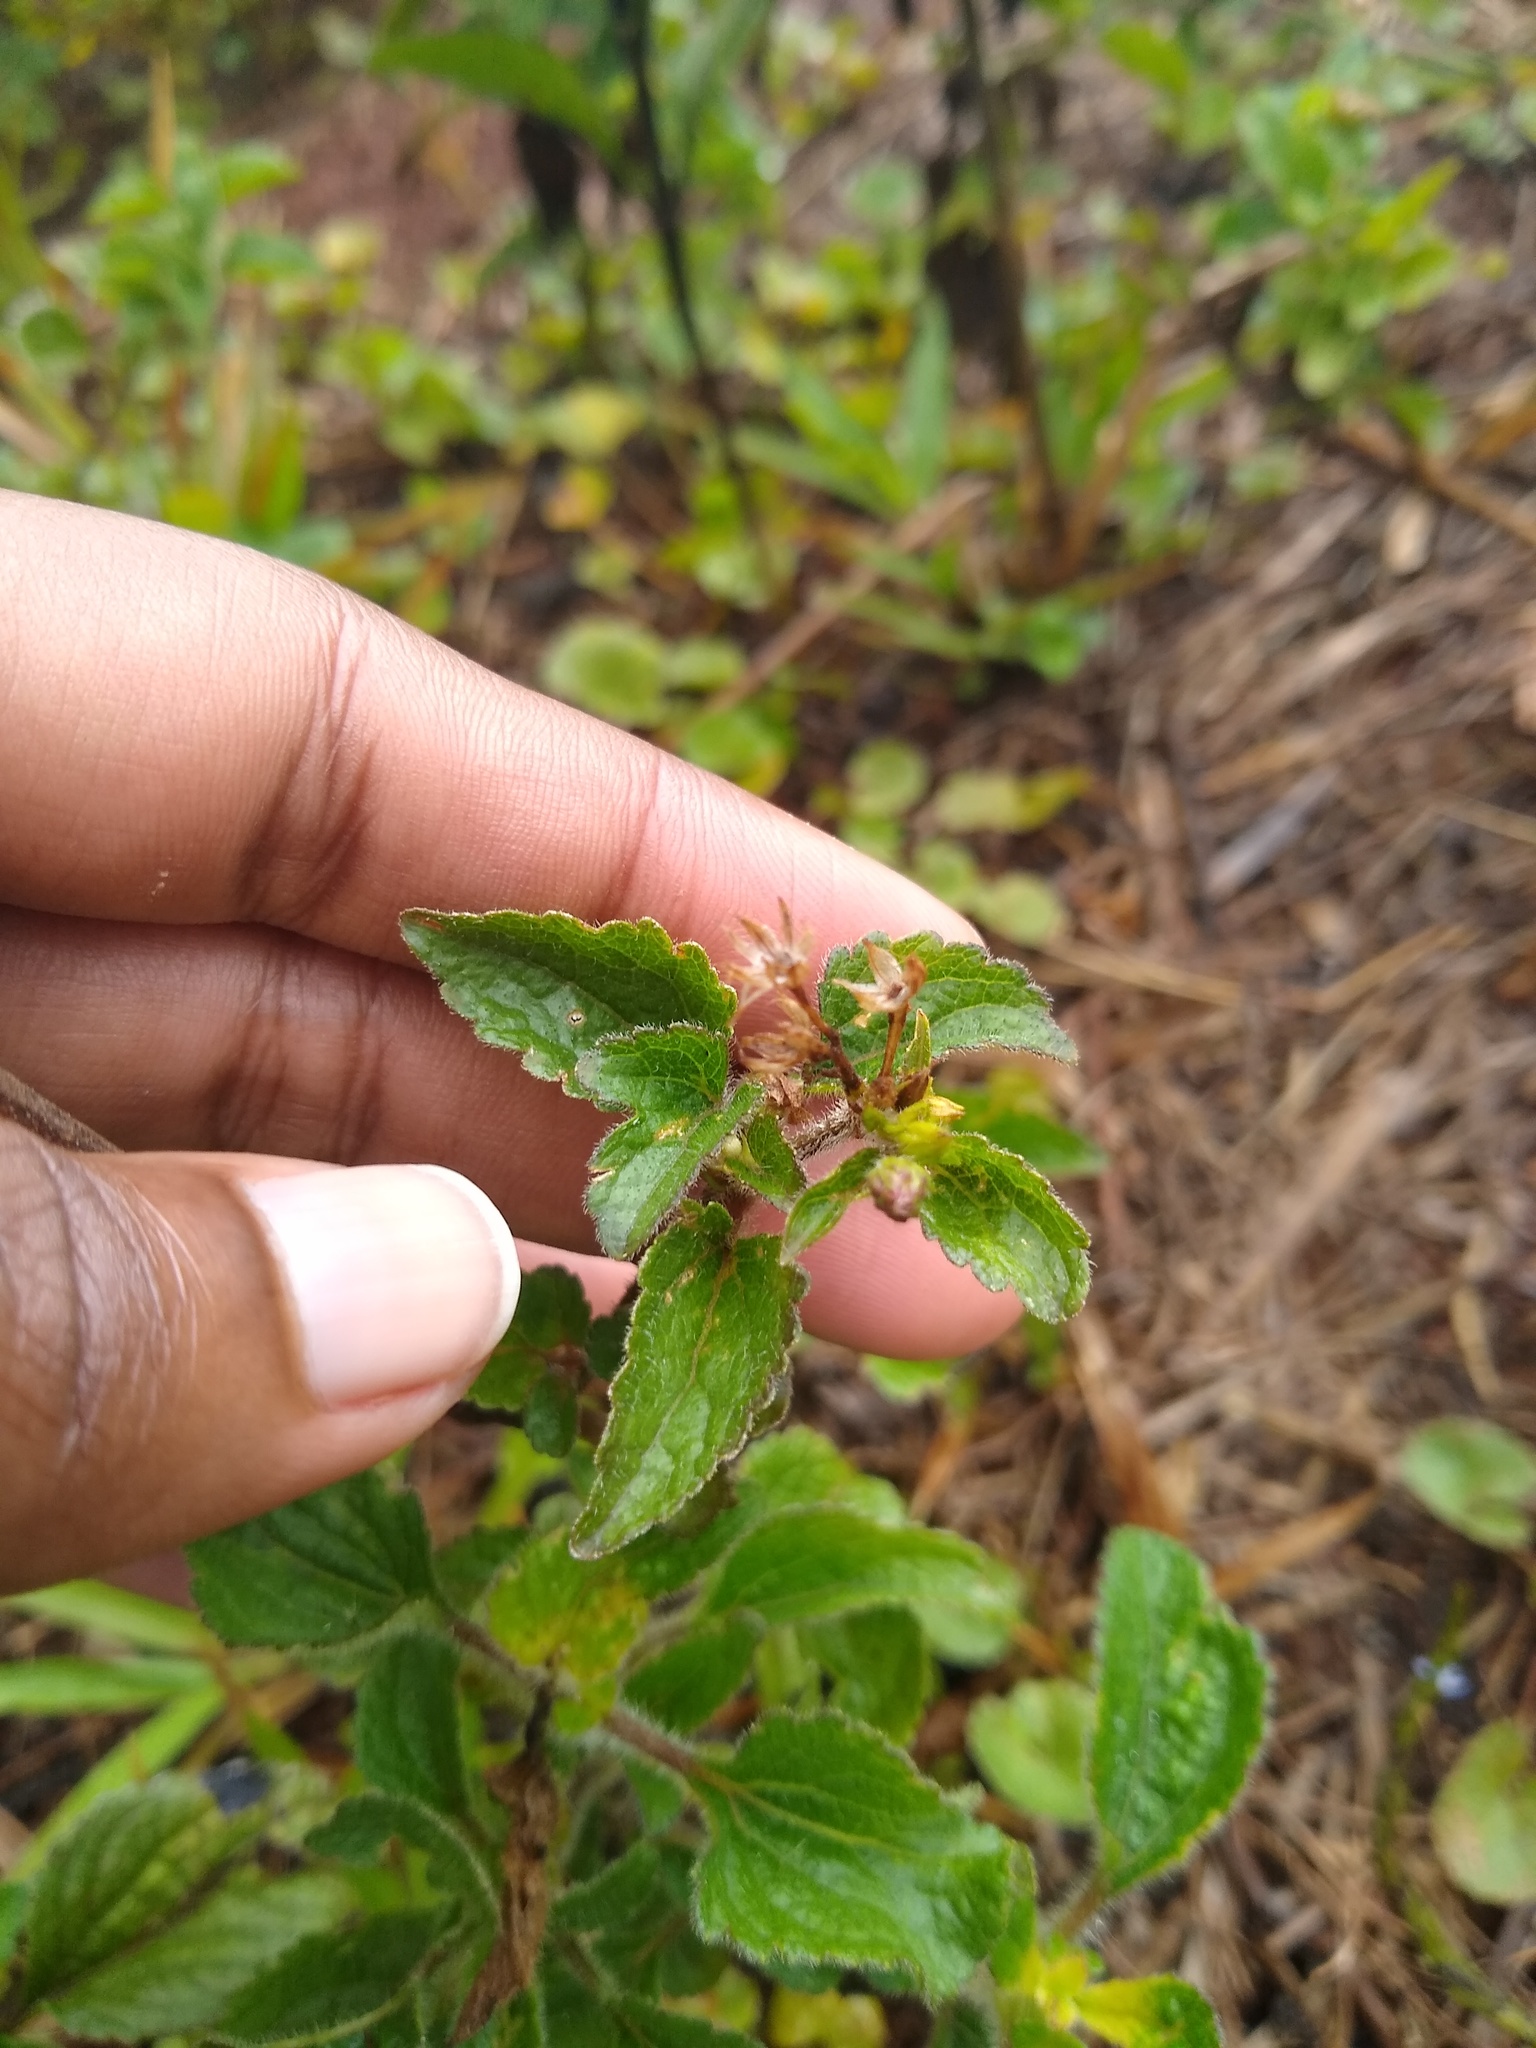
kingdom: Plantae
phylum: Tracheophyta
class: Magnoliopsida
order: Asterales
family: Asteraceae
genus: Ageratum
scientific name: Ageratum conyzoides
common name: Tropical whiteweed
